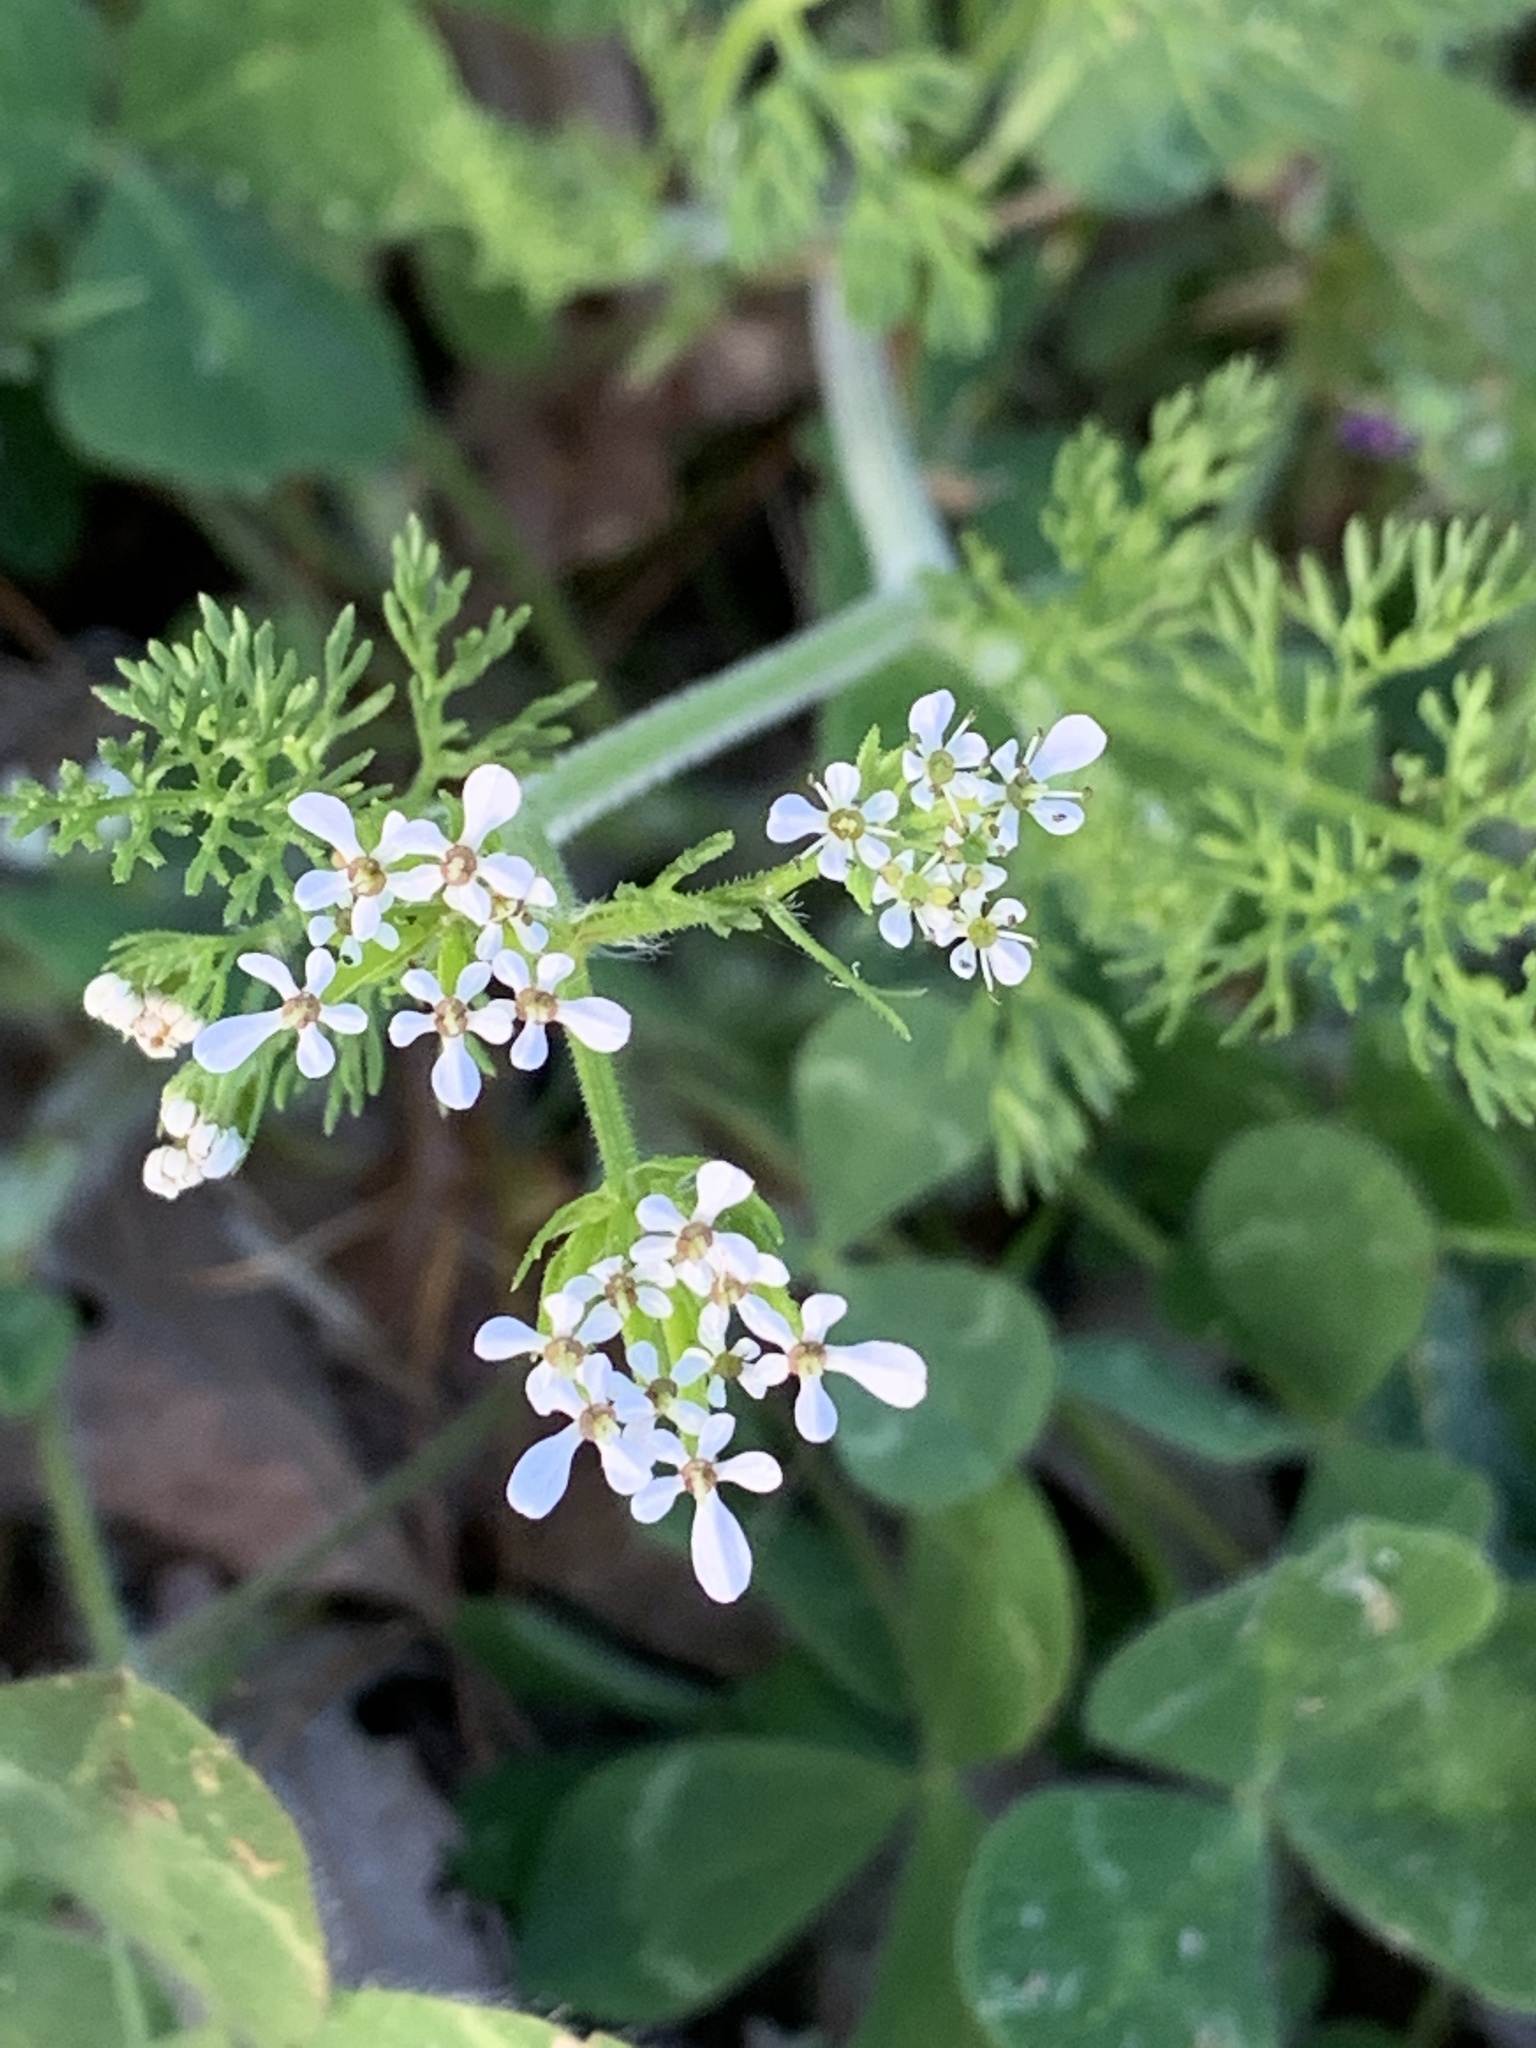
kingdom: Plantae
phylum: Tracheophyta
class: Magnoliopsida
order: Apiales
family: Apiaceae
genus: Scandix
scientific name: Scandix pecten-veneris
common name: Shepherd's-needle
